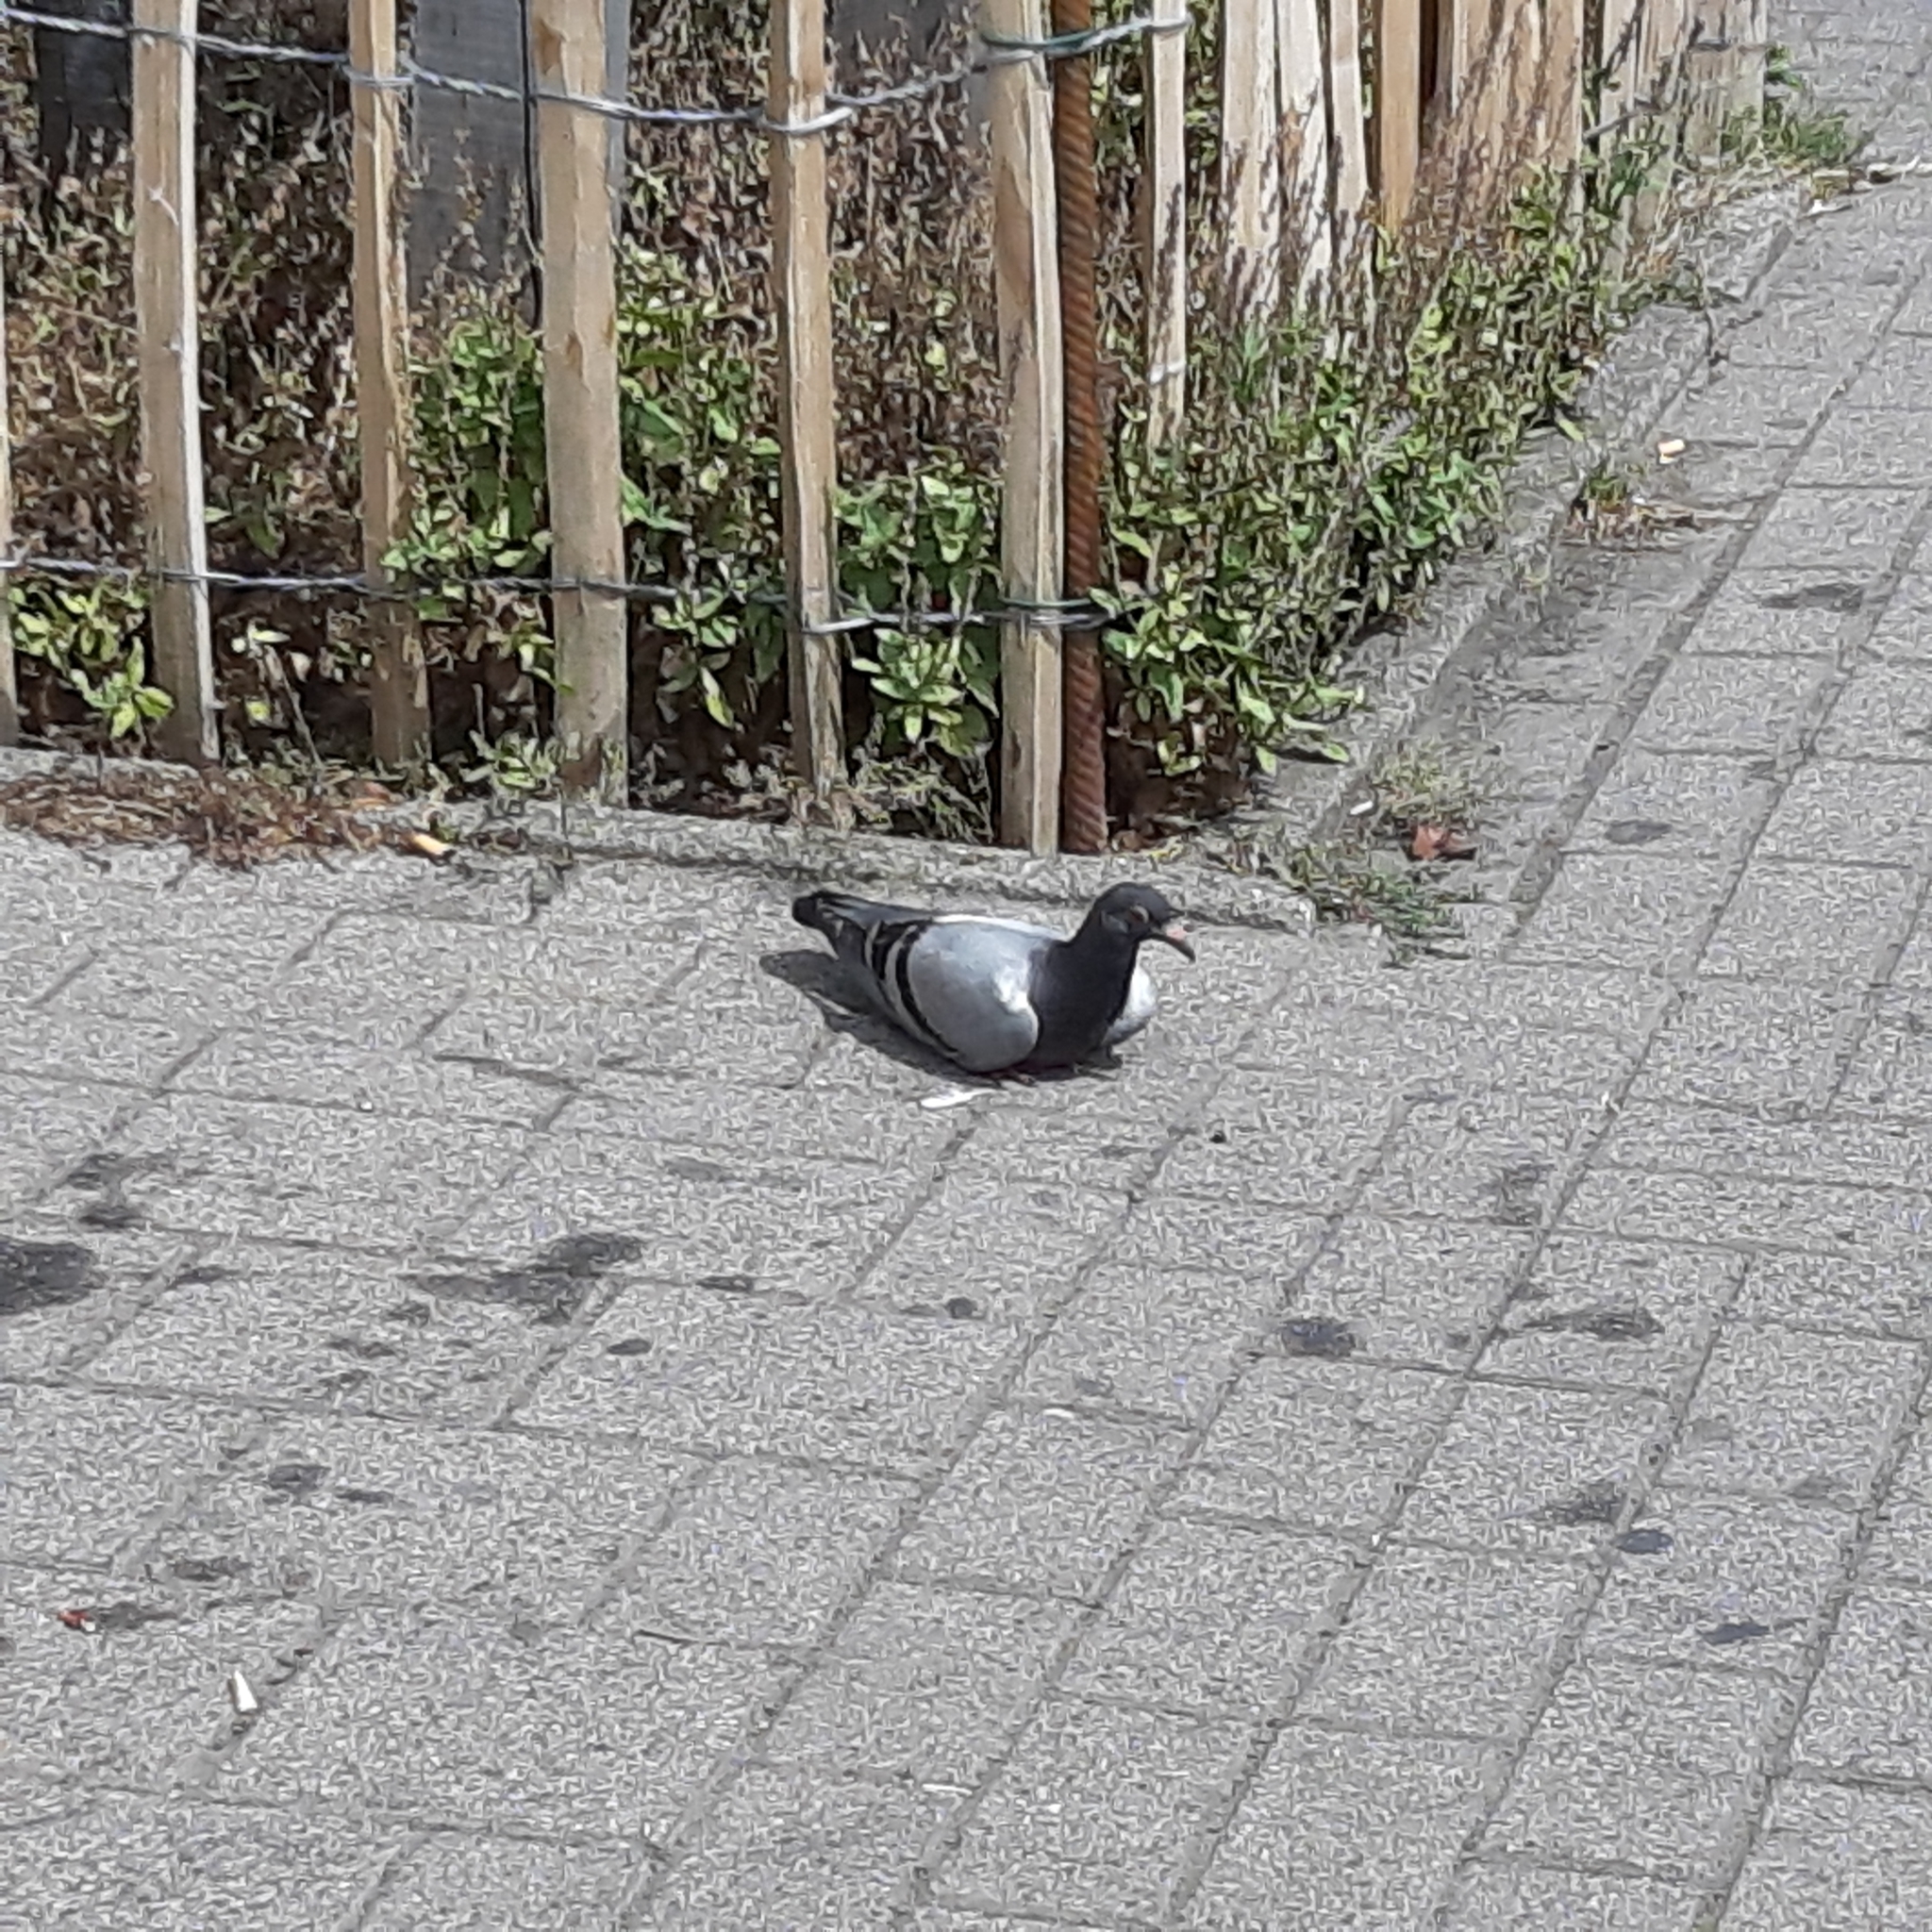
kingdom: Animalia
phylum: Chordata
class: Aves
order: Columbiformes
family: Columbidae
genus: Columba
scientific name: Columba livia
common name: Rock pigeon
